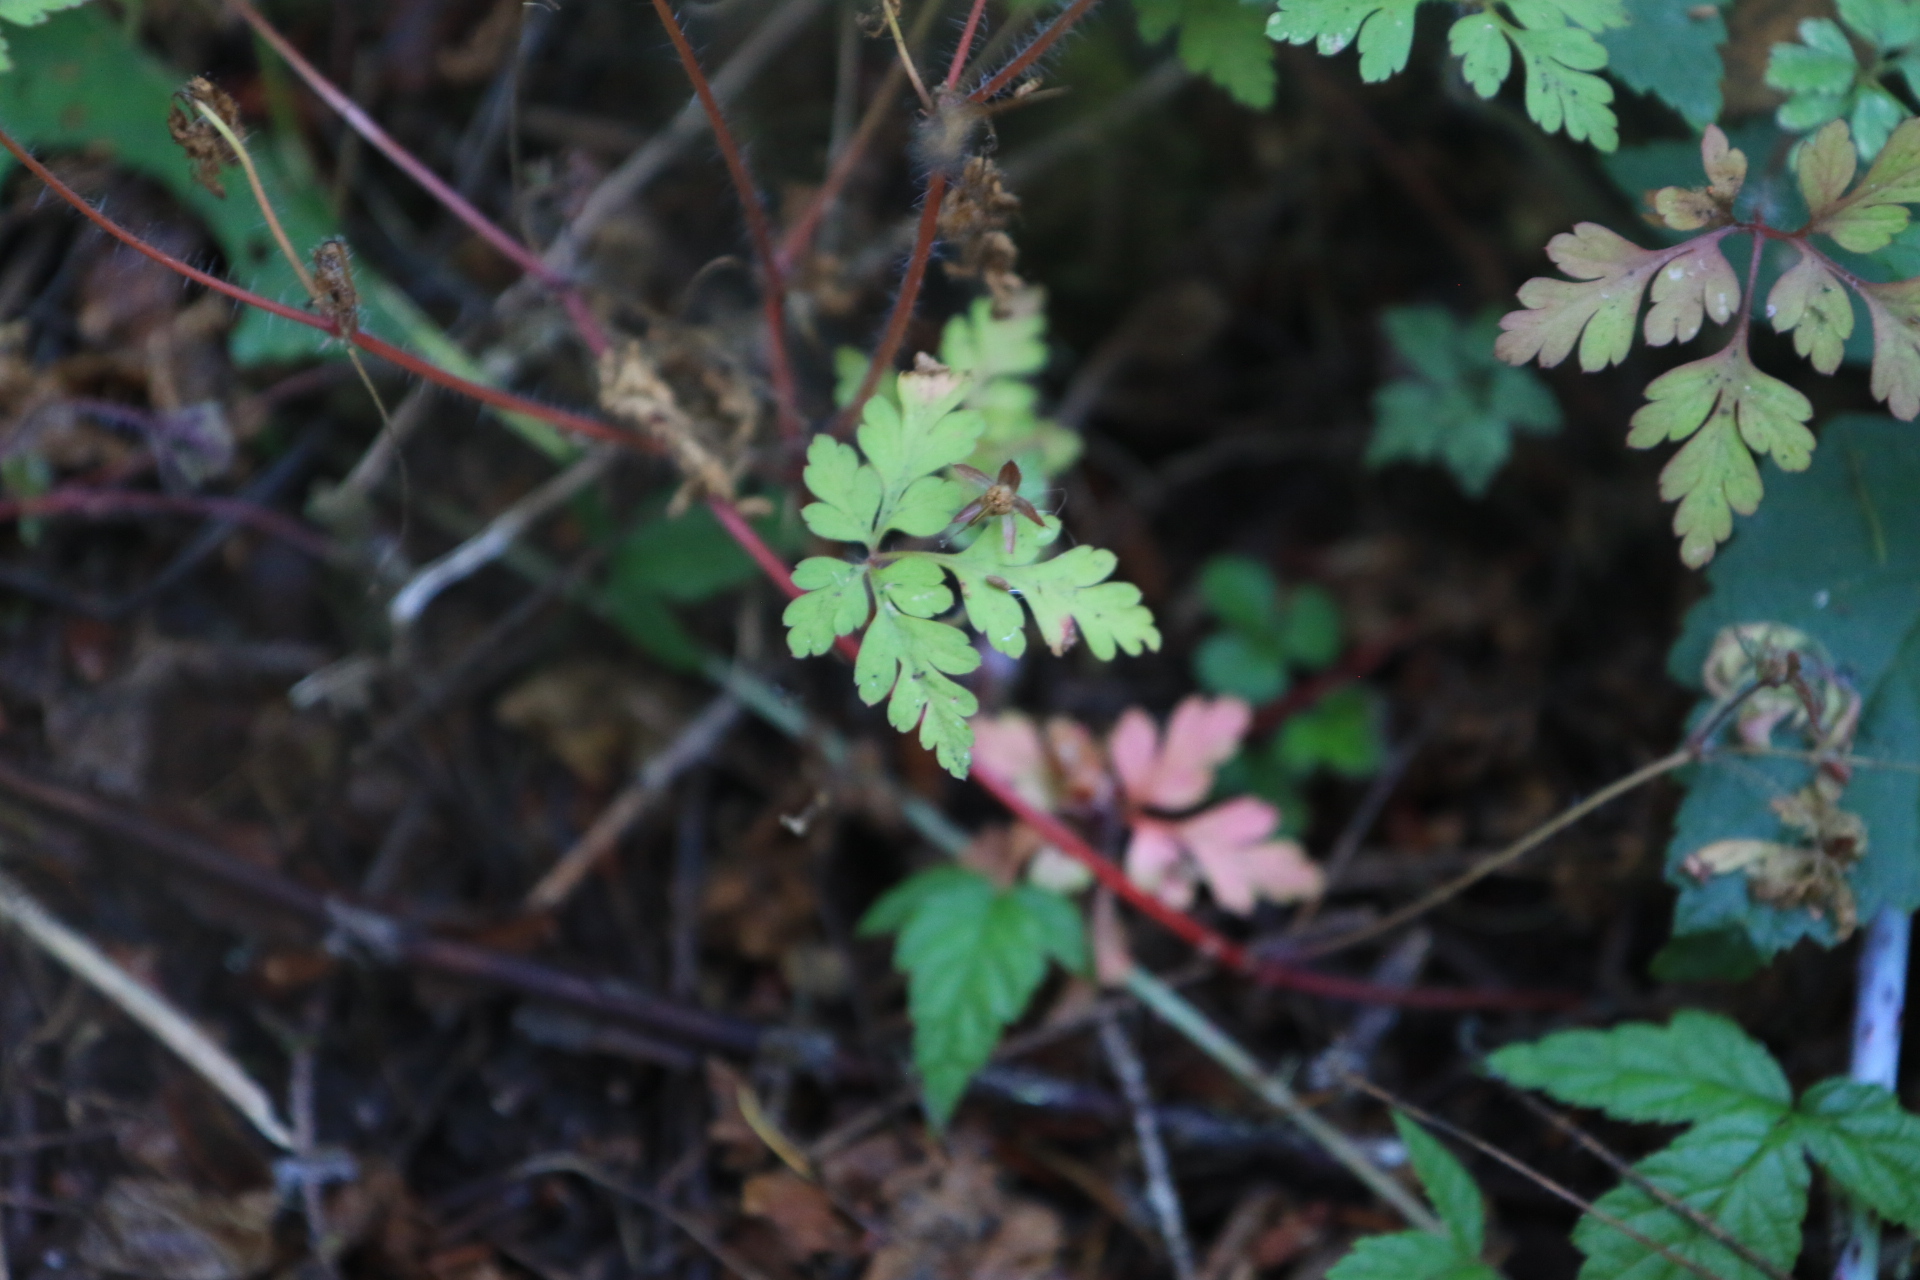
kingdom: Plantae
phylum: Tracheophyta
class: Magnoliopsida
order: Geraniales
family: Geraniaceae
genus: Geranium
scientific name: Geranium robertianum
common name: Herb-robert
